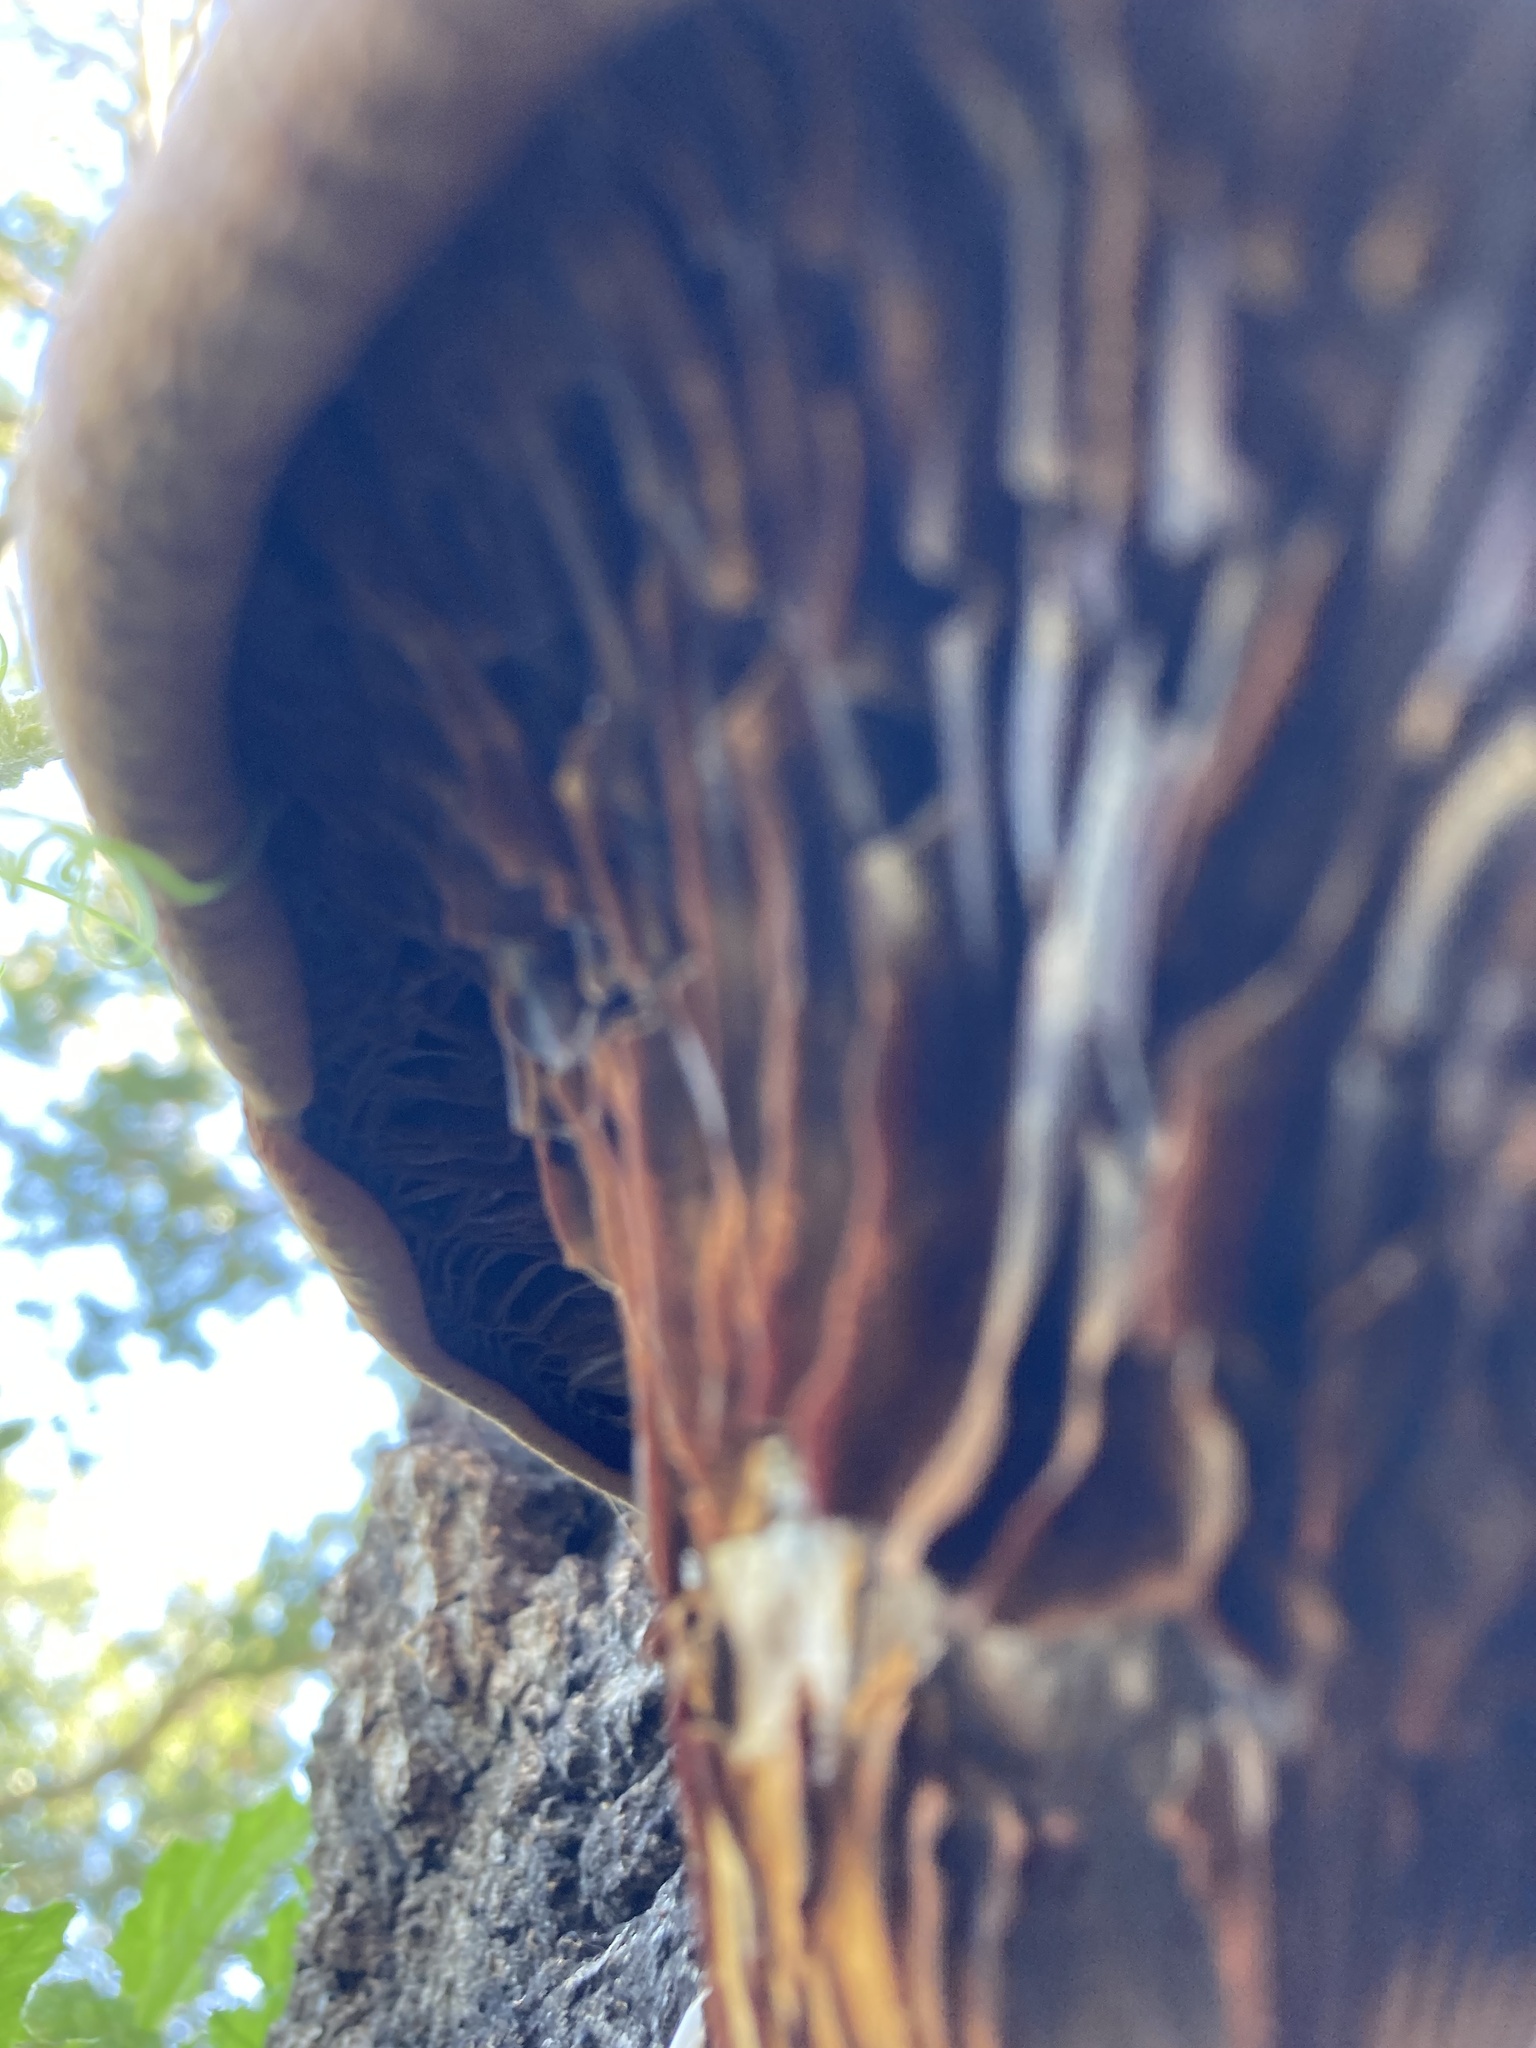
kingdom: Fungi
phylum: Basidiomycota
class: Agaricomycetes
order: Agaricales
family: Omphalotaceae
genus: Omphalotus
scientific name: Omphalotus olivascens
